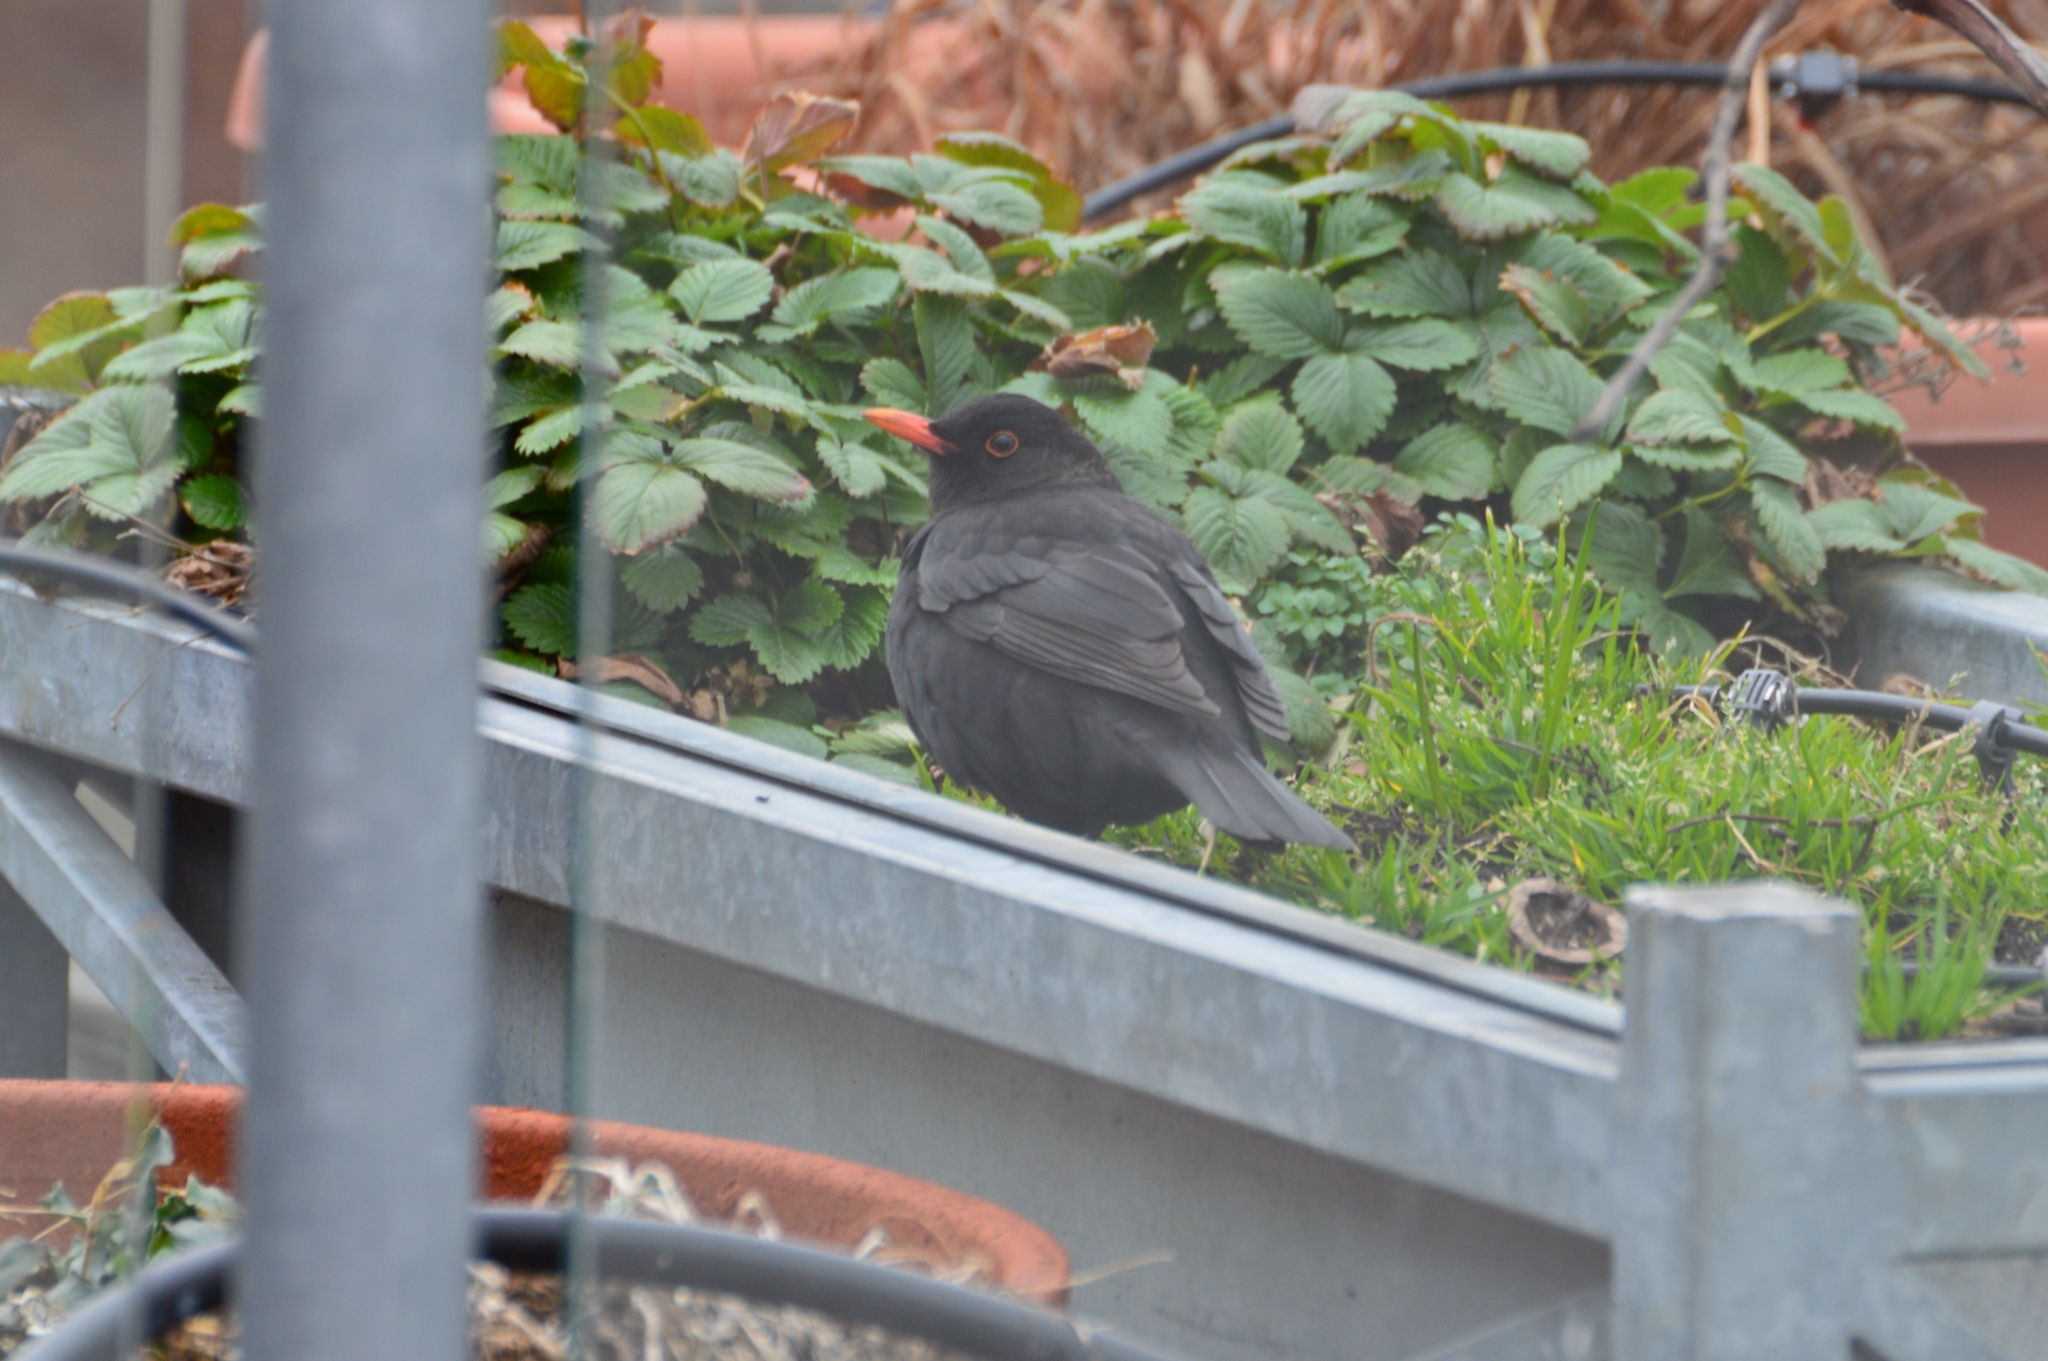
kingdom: Animalia
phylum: Chordata
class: Aves
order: Passeriformes
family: Turdidae
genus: Turdus
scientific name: Turdus merula
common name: Common blackbird
